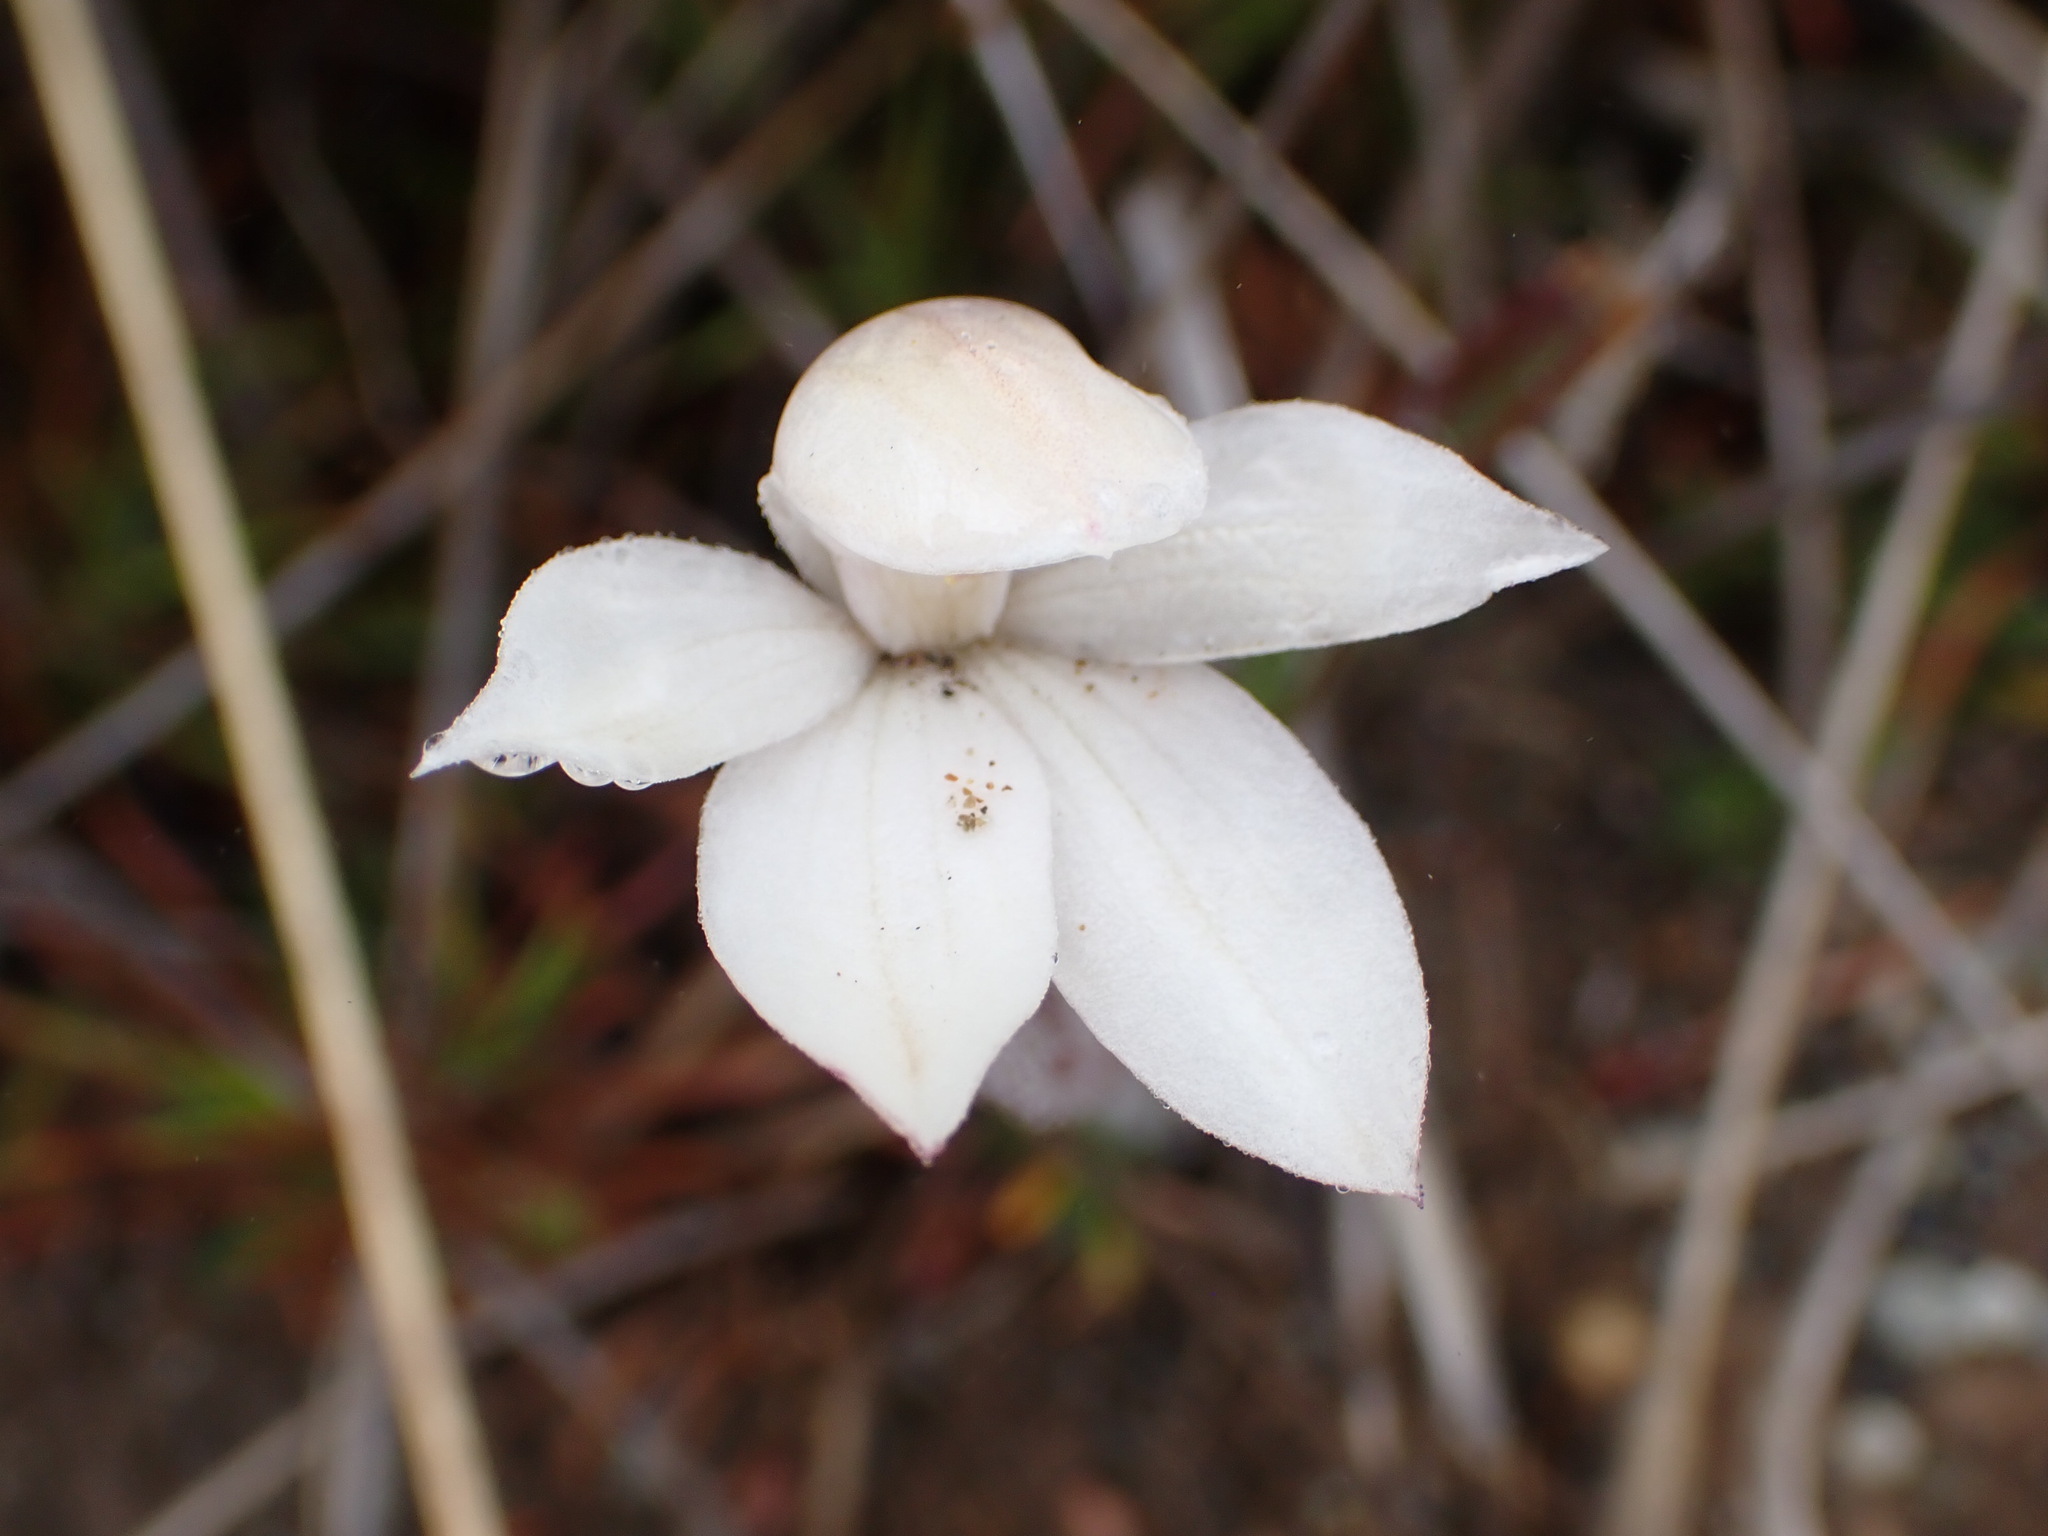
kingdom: Plantae
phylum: Tracheophyta
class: Liliopsida
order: Asparagales
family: Orchidaceae
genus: Caladenia
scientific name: Caladenia lyallii
